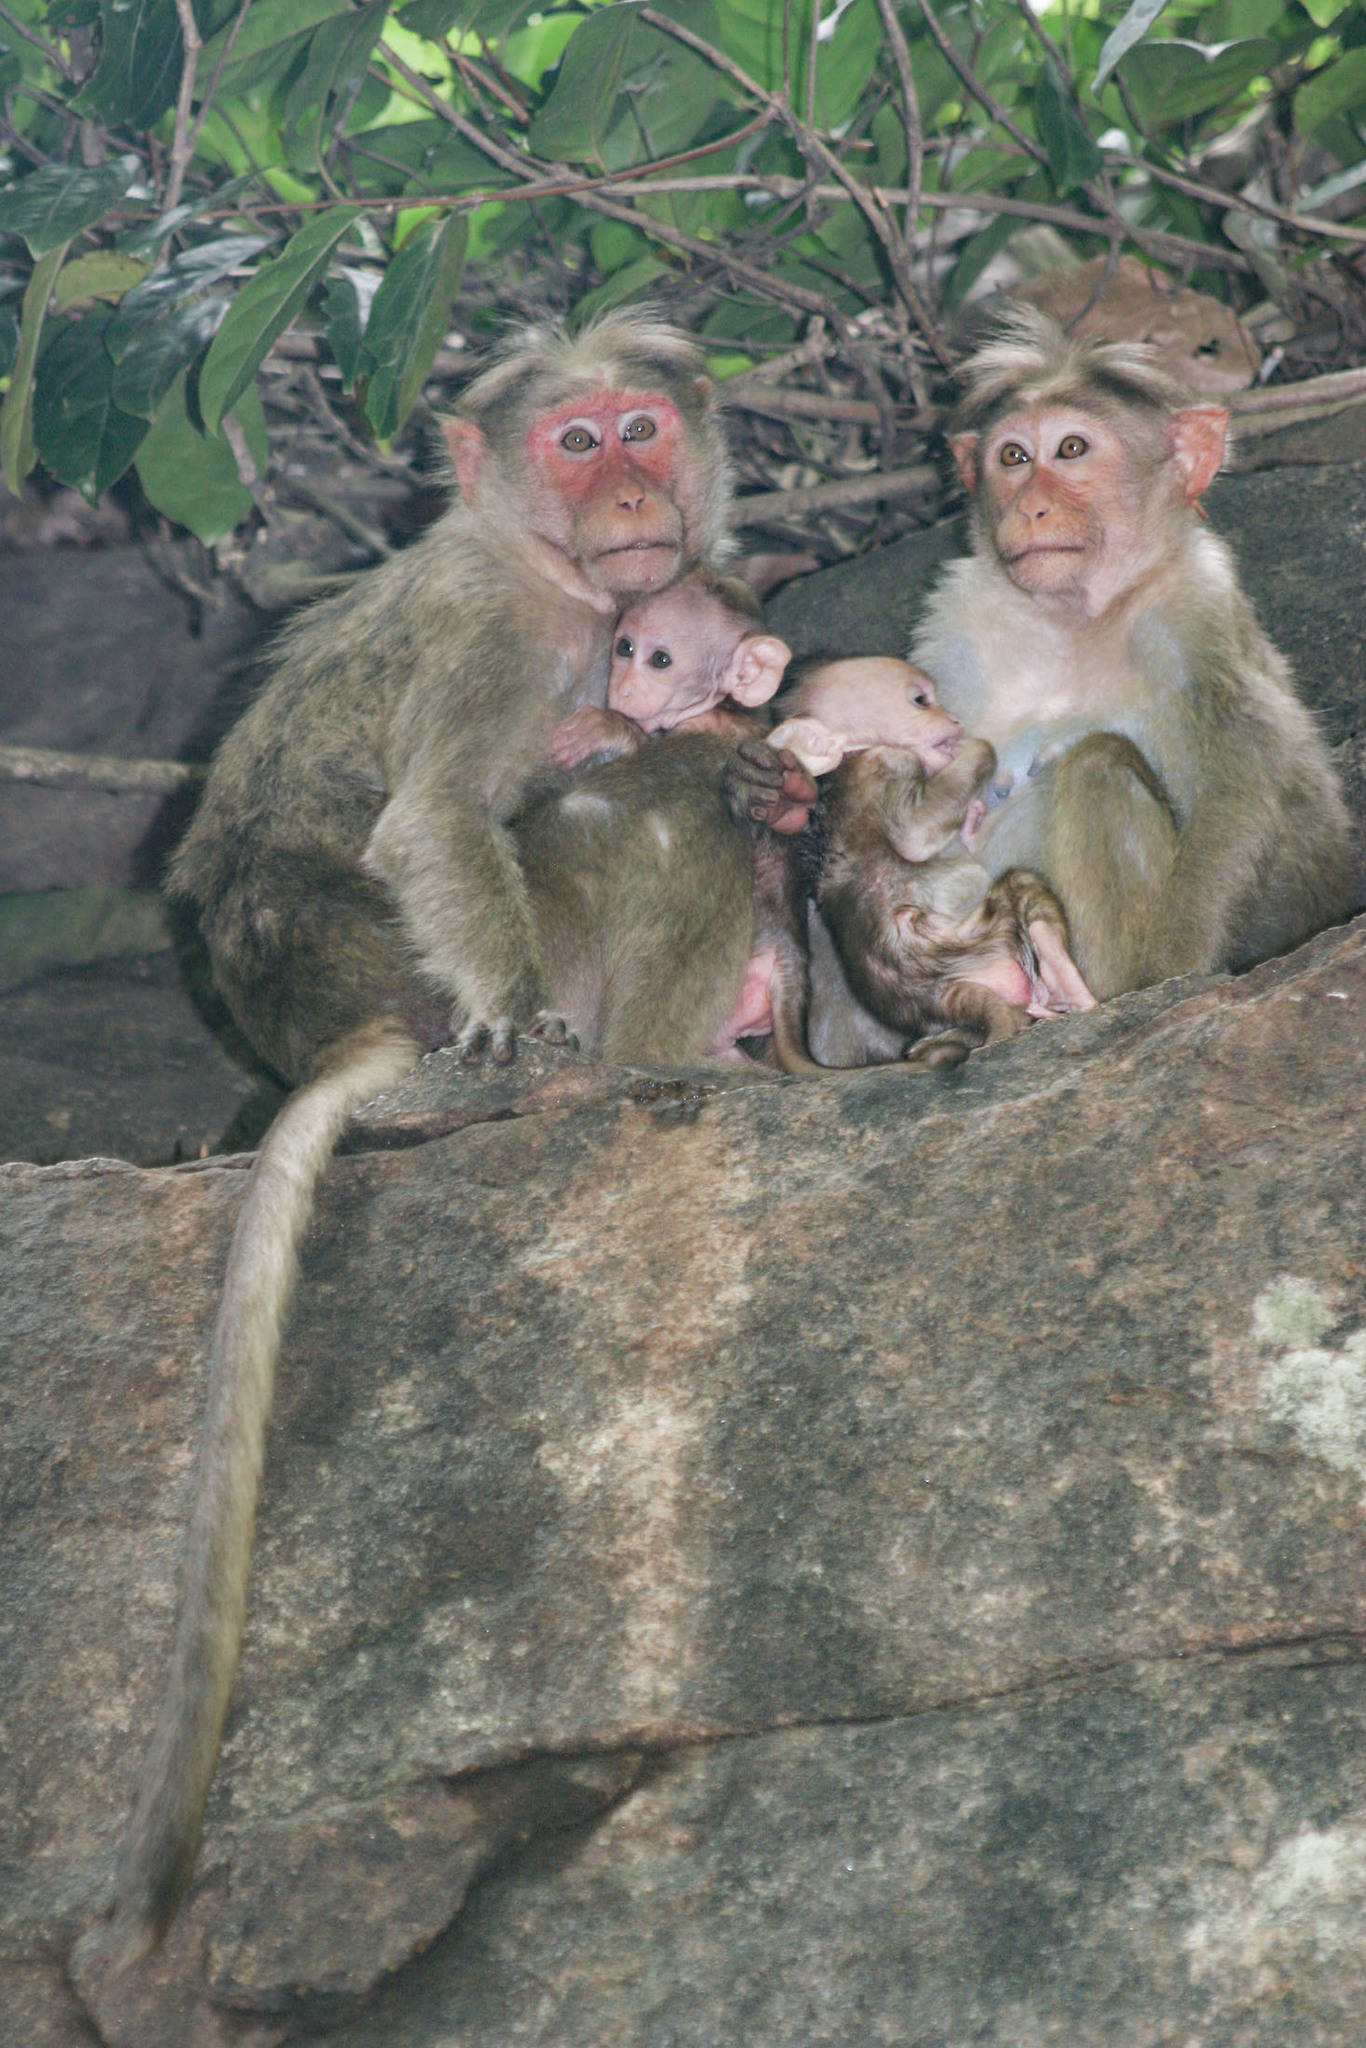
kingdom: Animalia
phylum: Chordata
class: Mammalia
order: Primates
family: Cercopithecidae
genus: Macaca
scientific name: Macaca radiata
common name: Bonnet macaque
